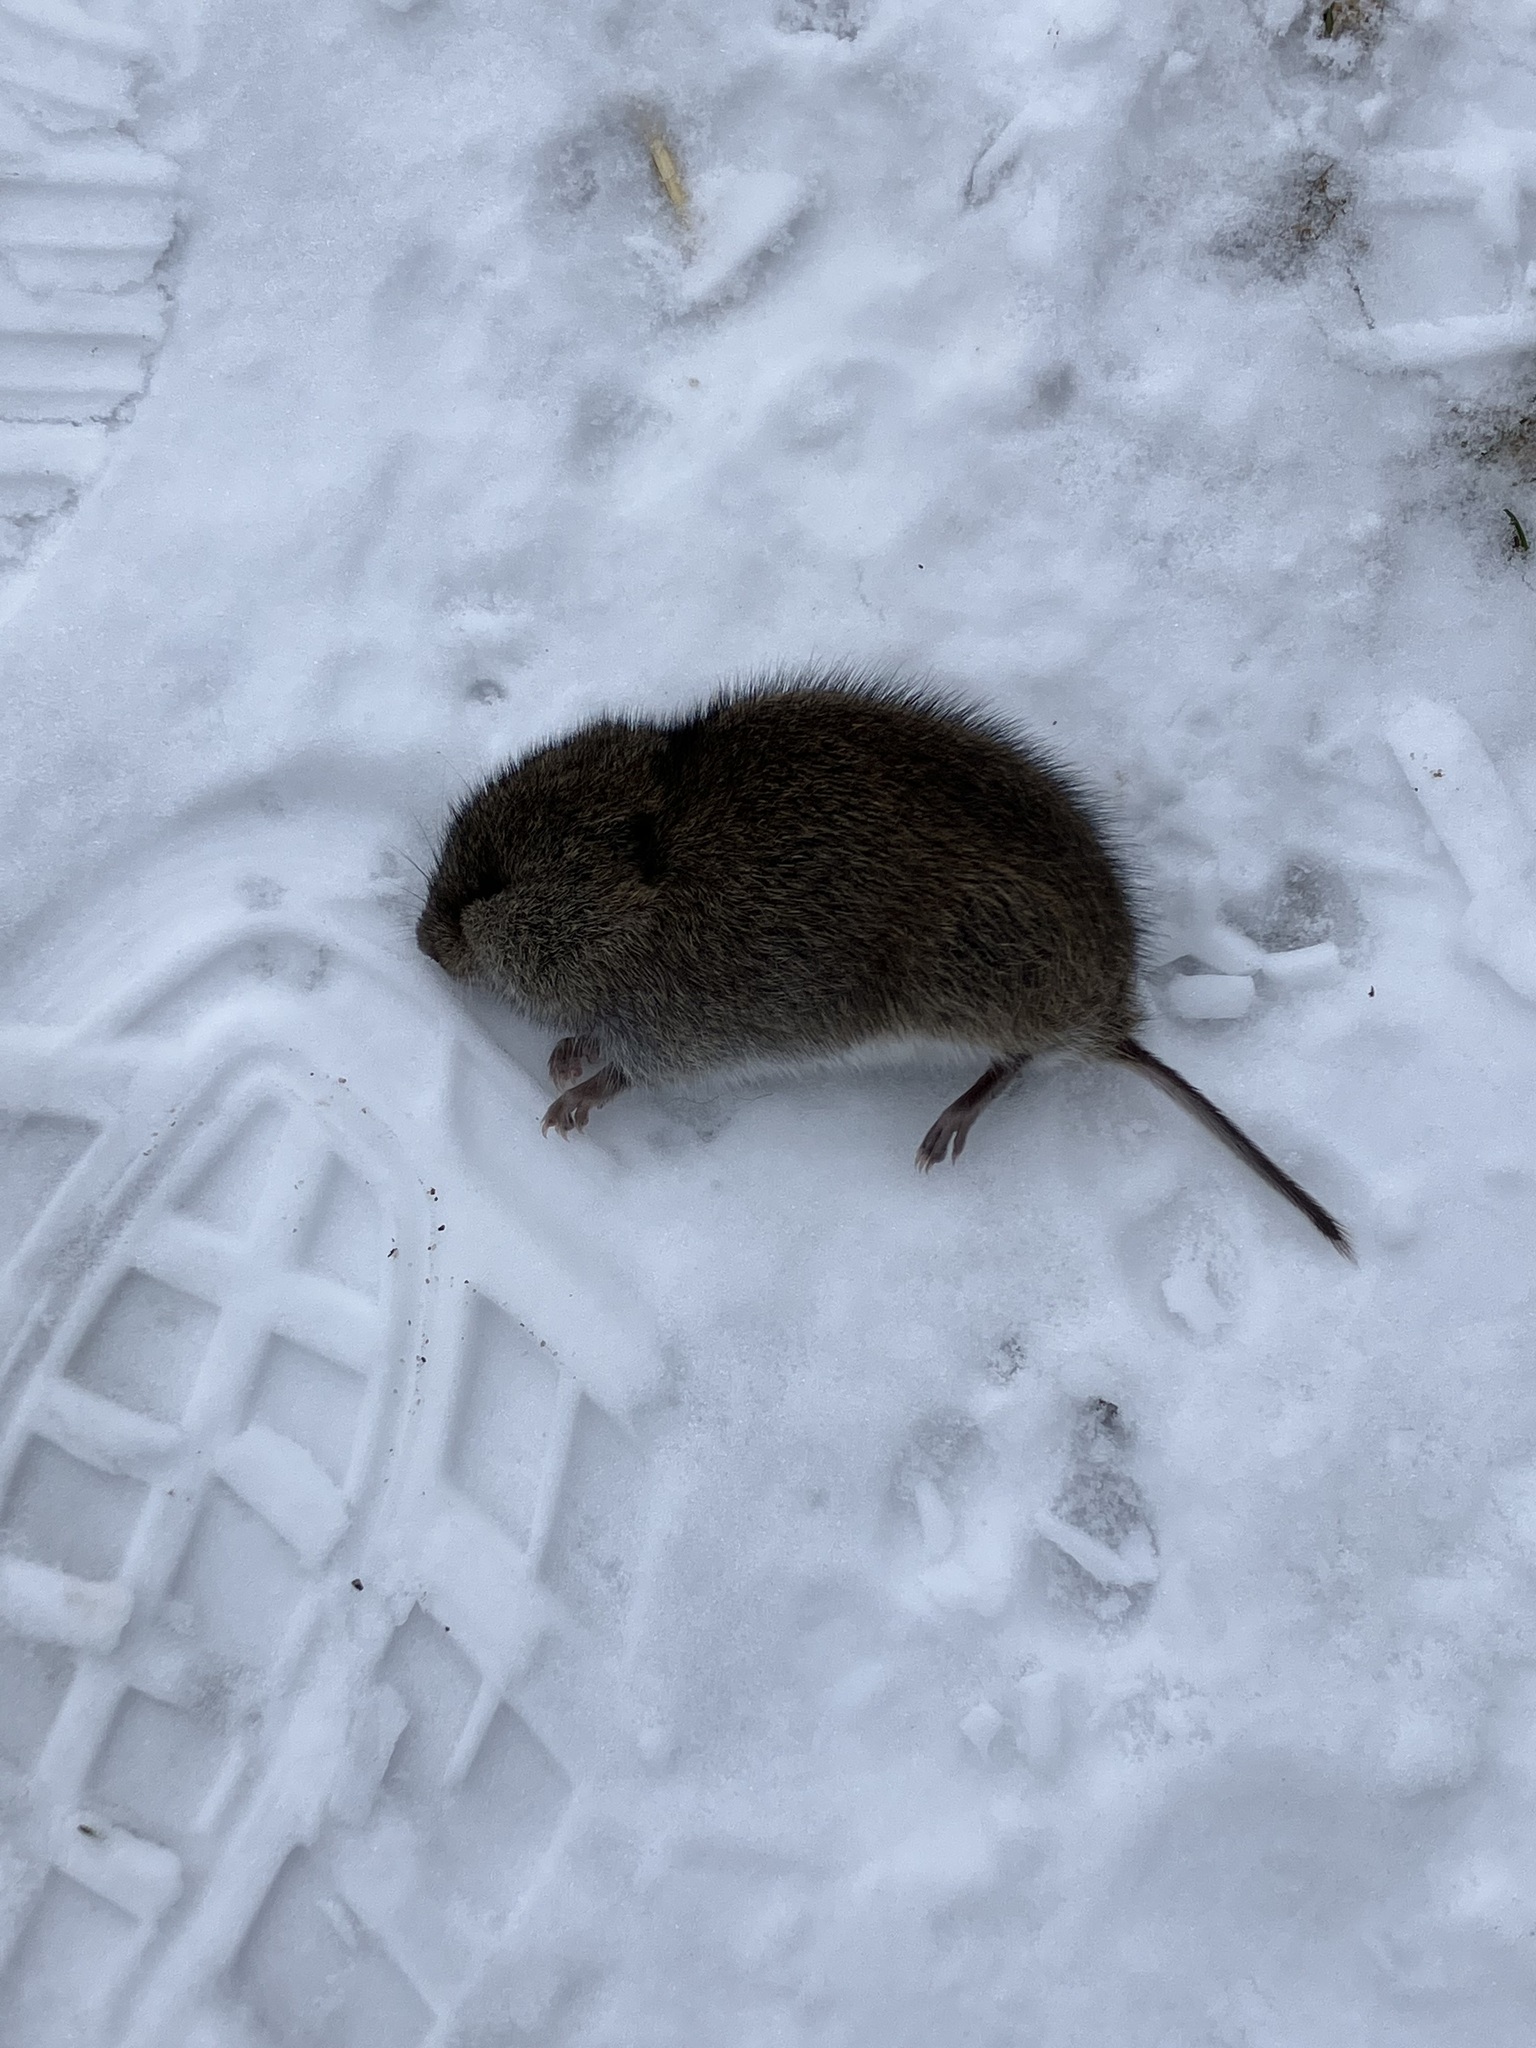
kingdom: Animalia
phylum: Chordata
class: Mammalia
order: Rodentia
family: Cricetidae
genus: Microtus
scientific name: Microtus pennsylvanicus
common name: Meadow vole
